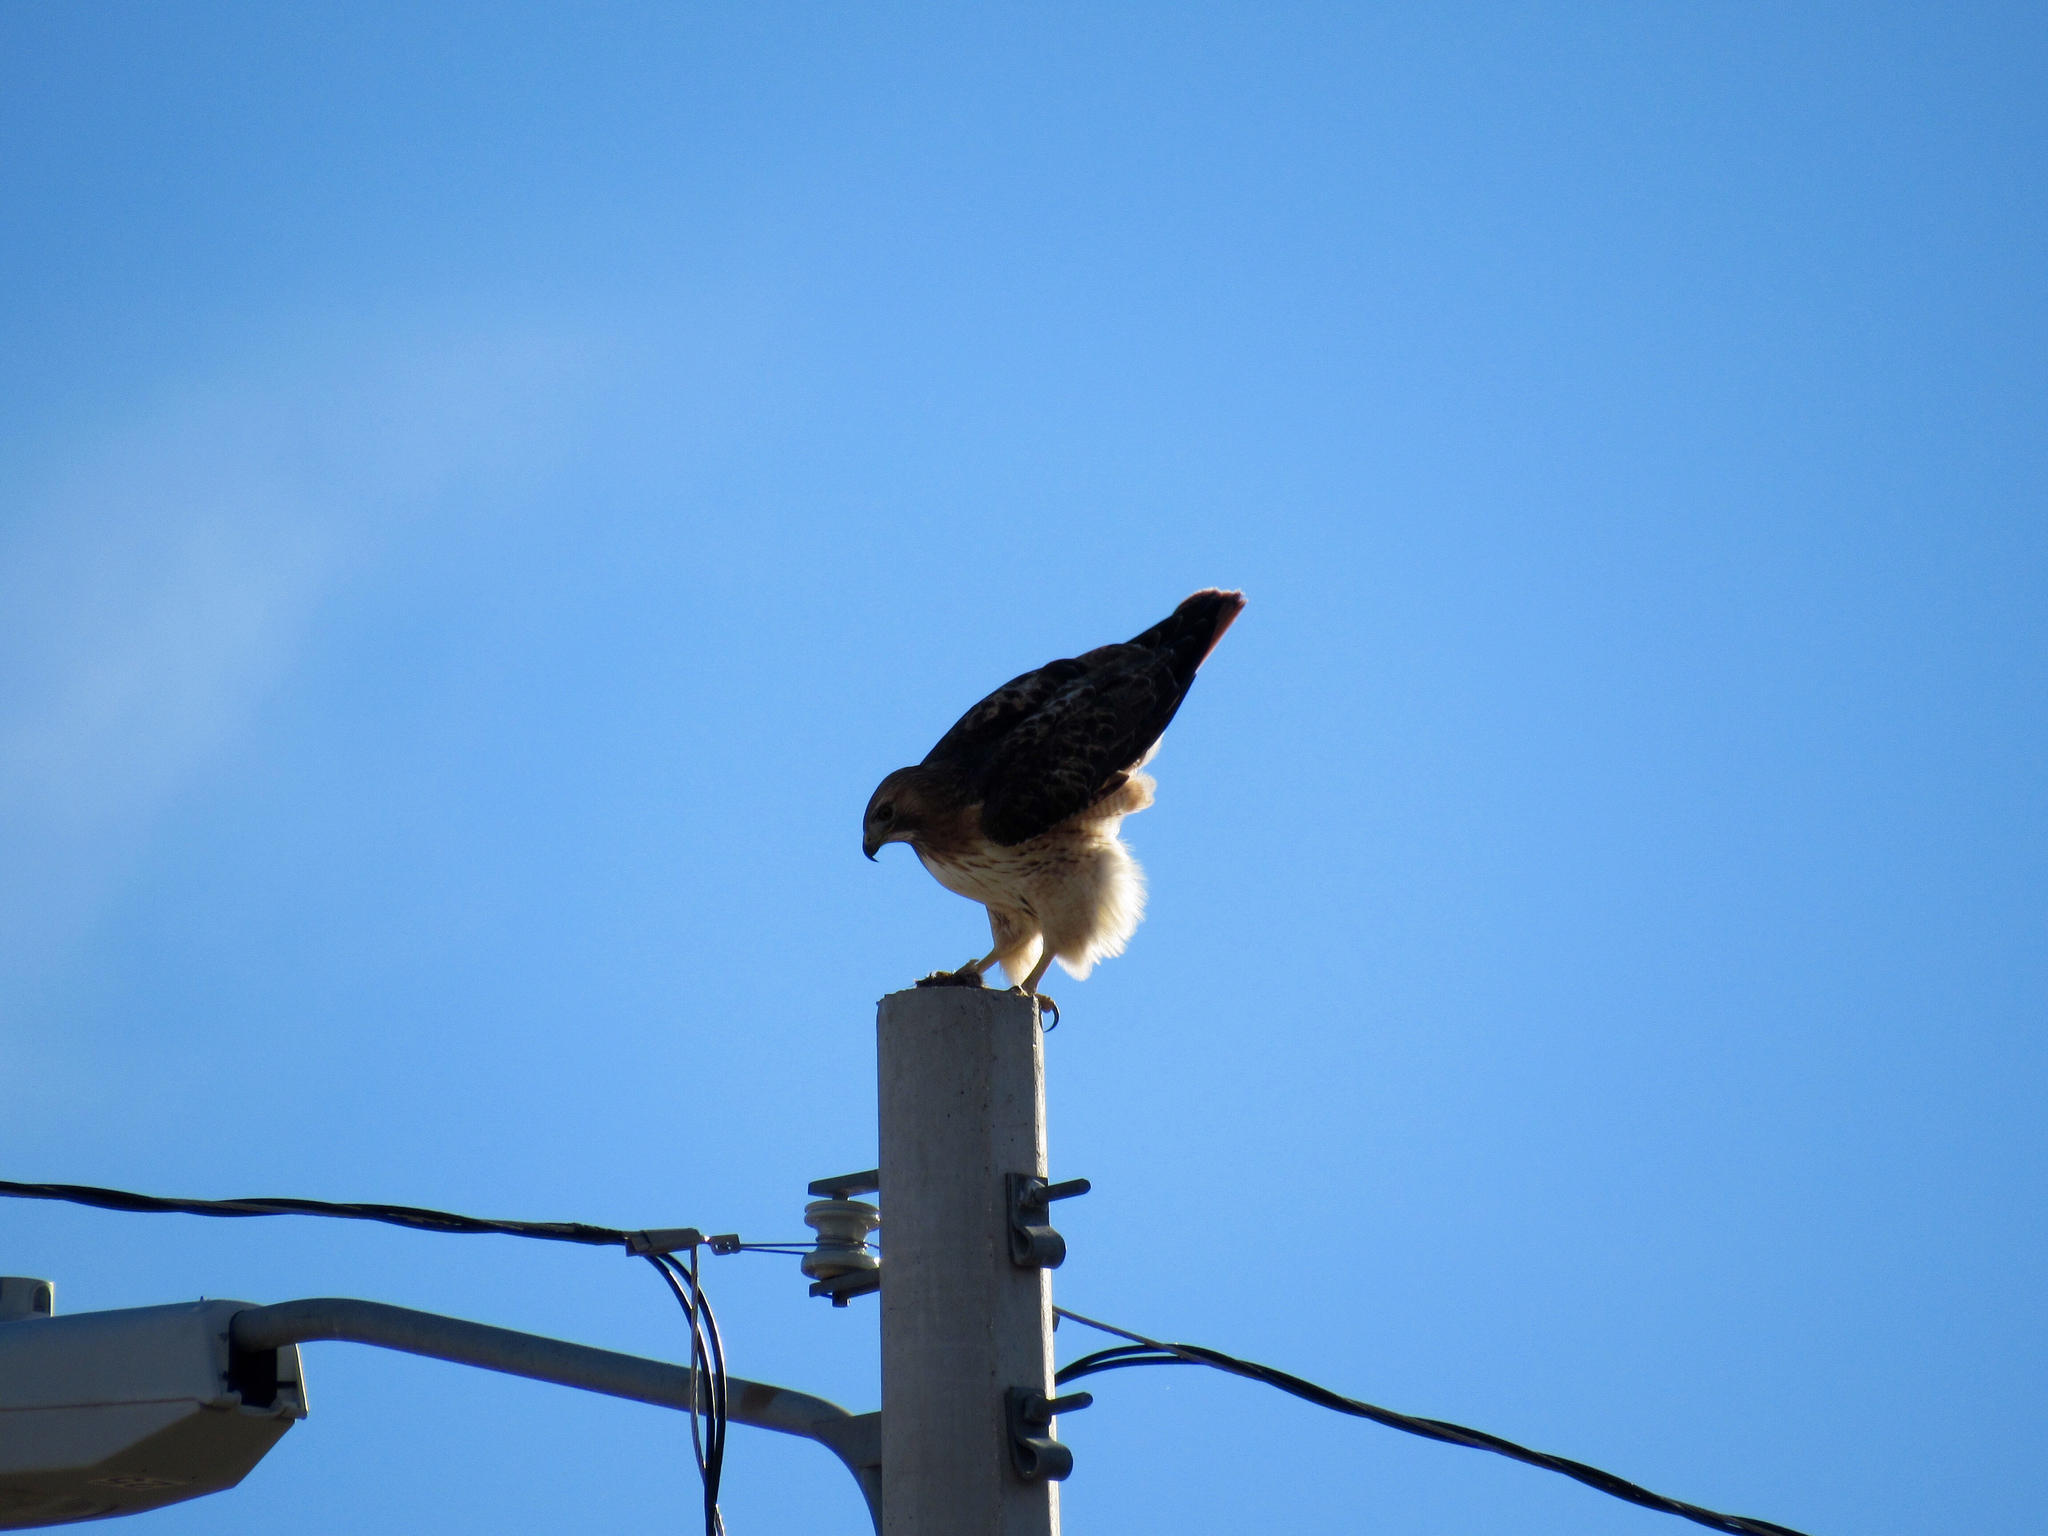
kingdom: Animalia
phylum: Chordata
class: Aves
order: Accipitriformes
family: Accipitridae
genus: Buteo
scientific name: Buteo jamaicensis
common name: Red-tailed hawk
